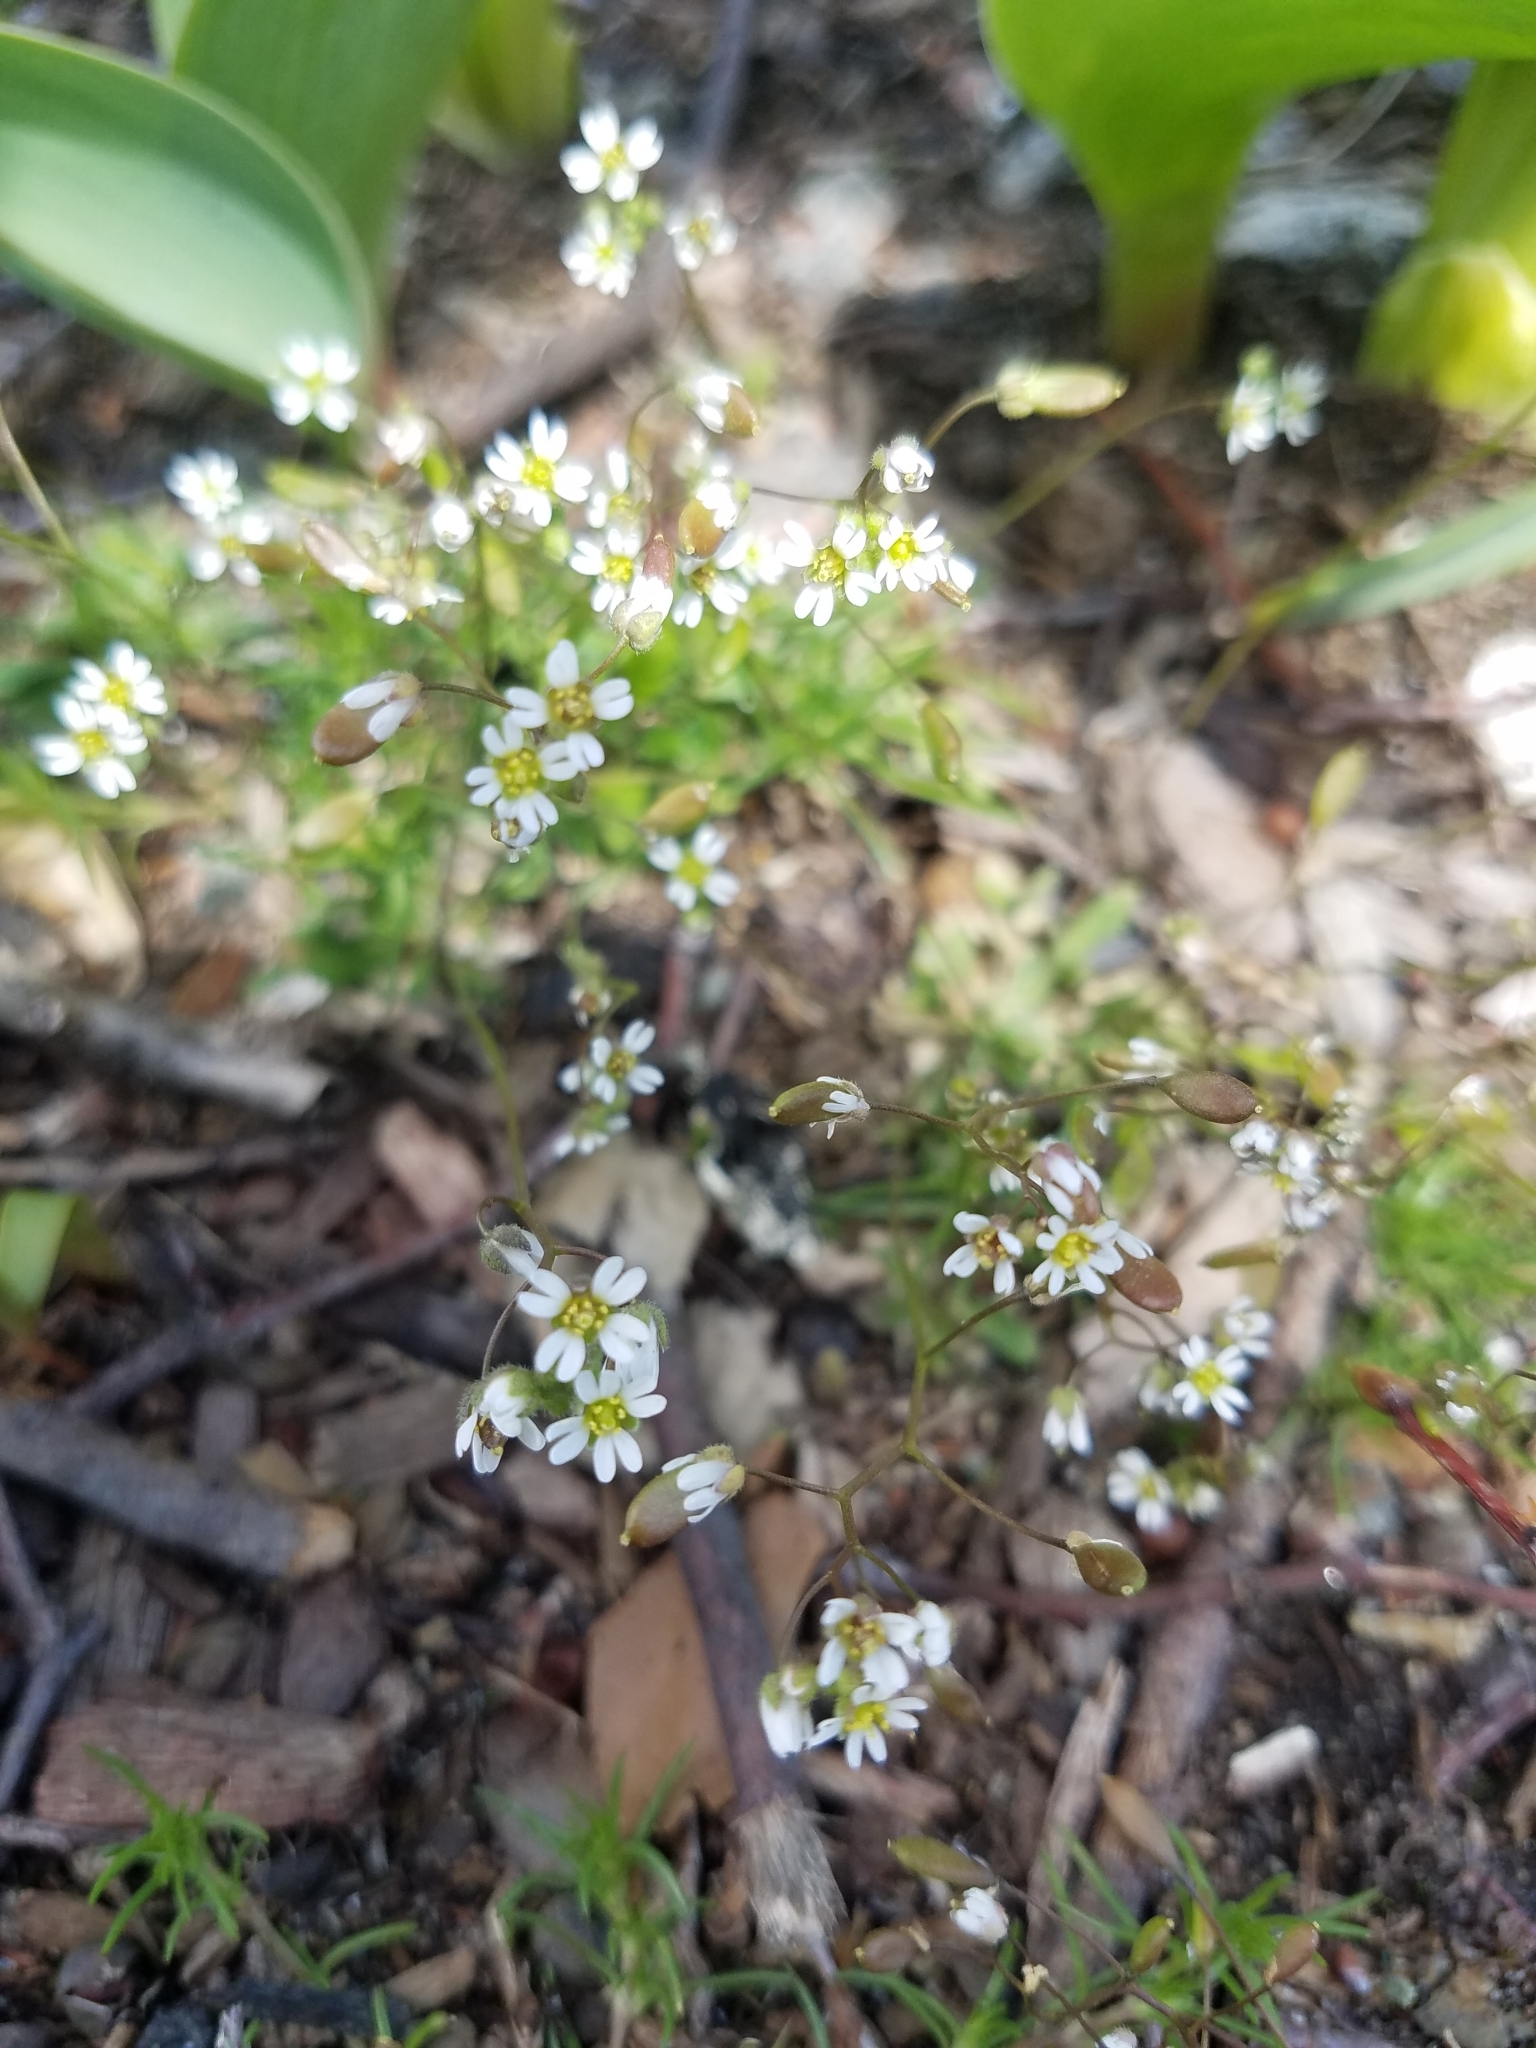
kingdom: Plantae
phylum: Tracheophyta
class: Magnoliopsida
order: Brassicales
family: Brassicaceae
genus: Draba
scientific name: Draba verna
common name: Spring draba
